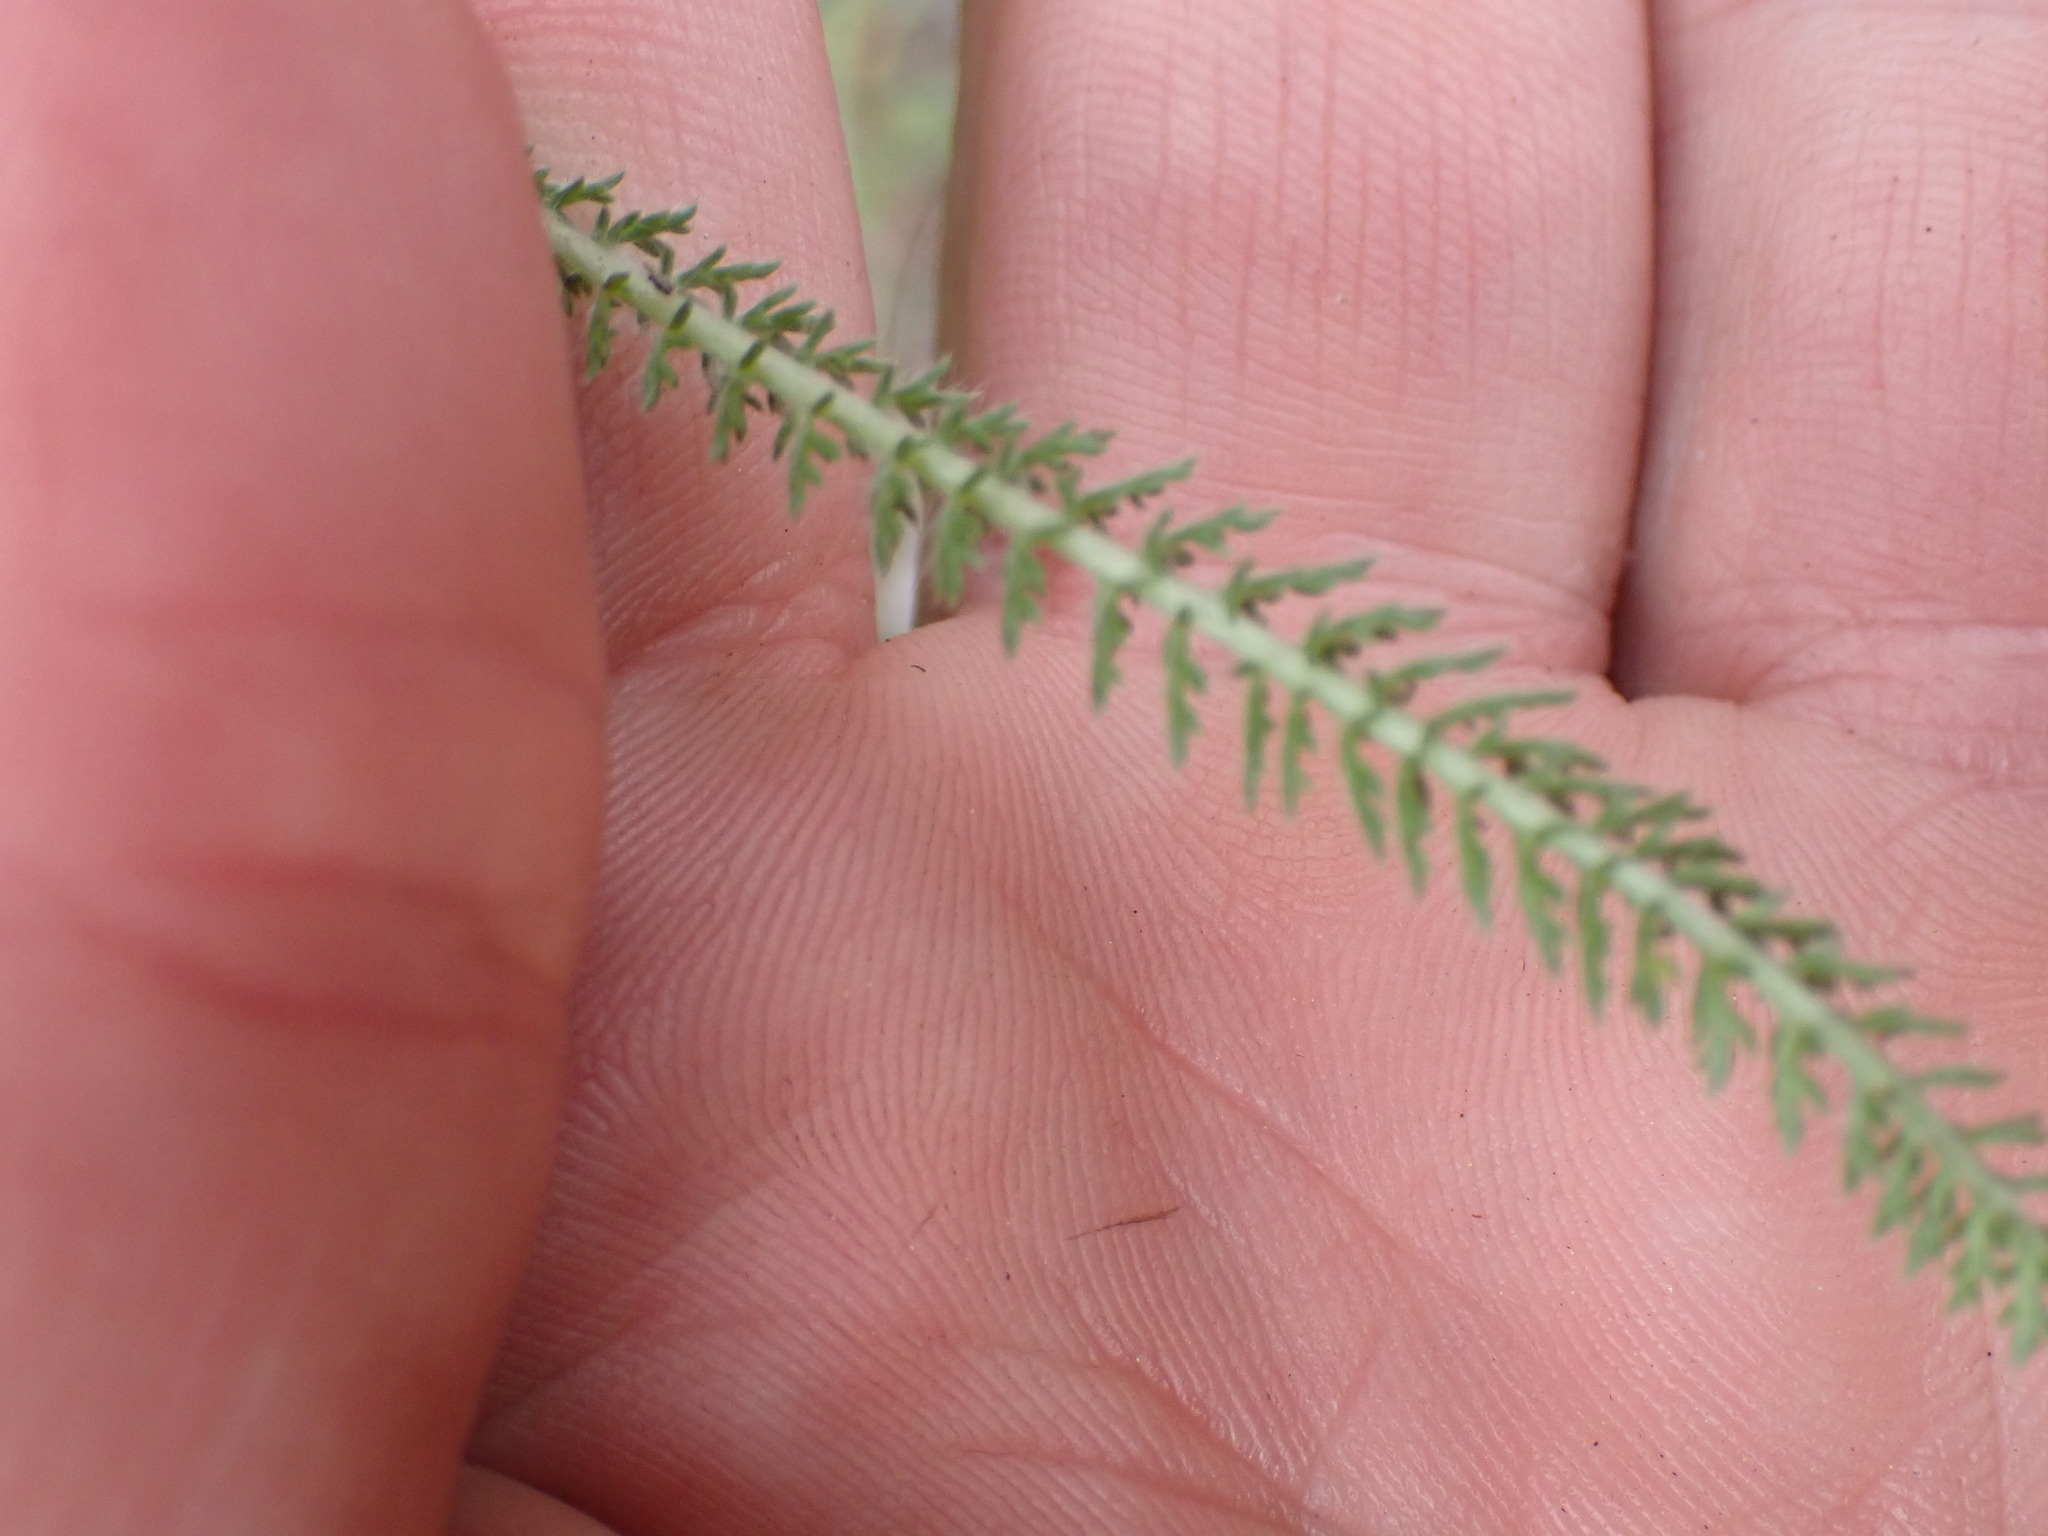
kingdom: Plantae
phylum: Tracheophyta
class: Magnoliopsida
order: Asterales
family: Asteraceae
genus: Achillea
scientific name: Achillea millefolium
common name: Yarrow
